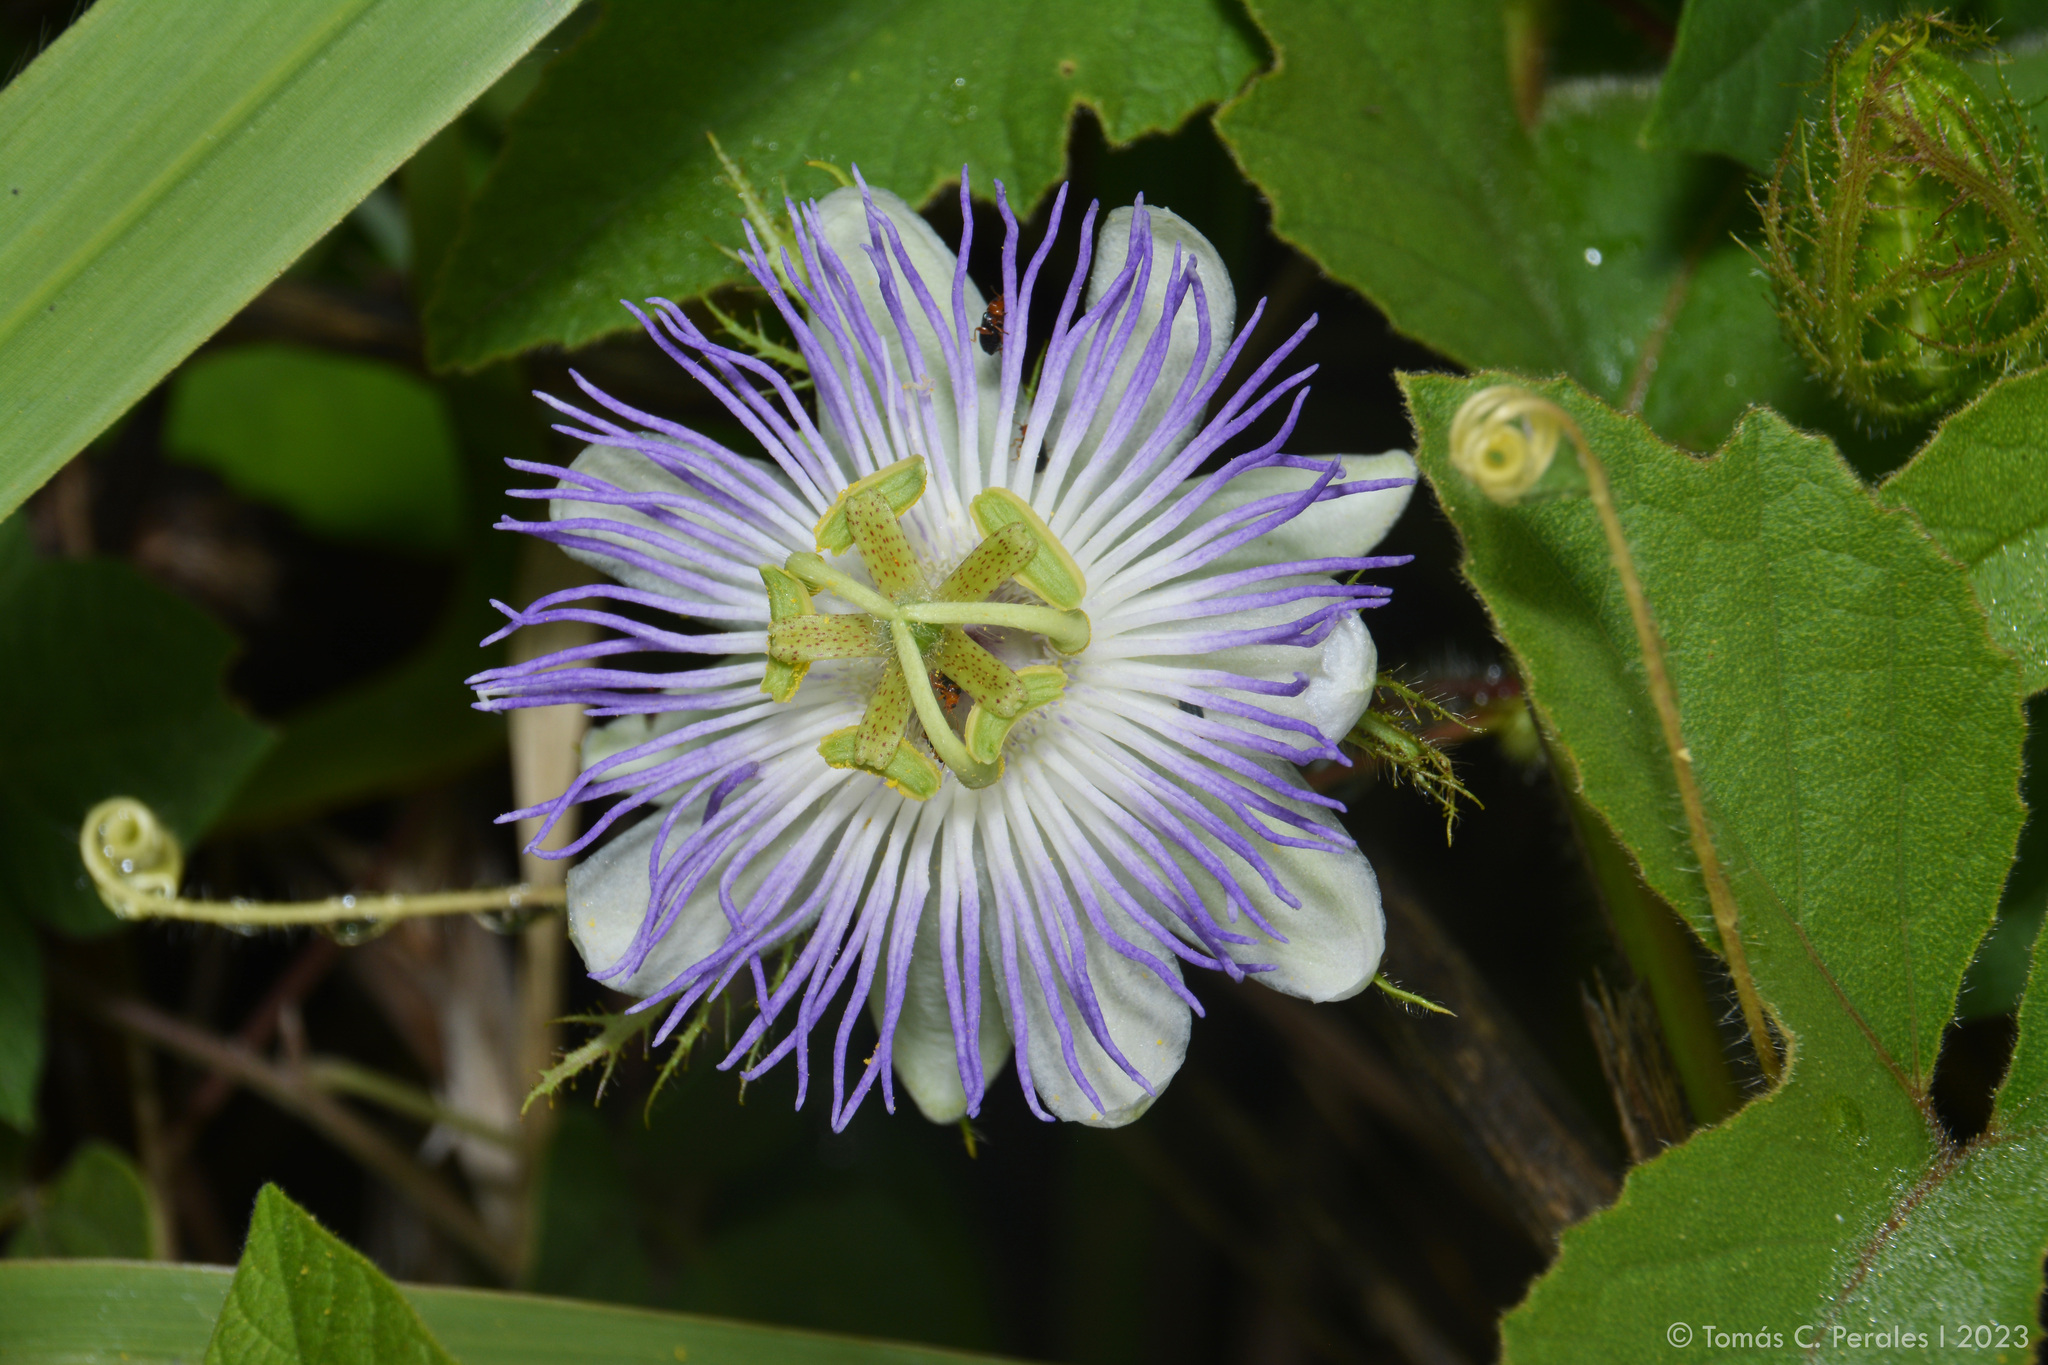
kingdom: Plantae
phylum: Tracheophyta
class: Magnoliopsida
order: Malpighiales
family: Passifloraceae
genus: Passiflora
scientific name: Passiflora chrysophylla
